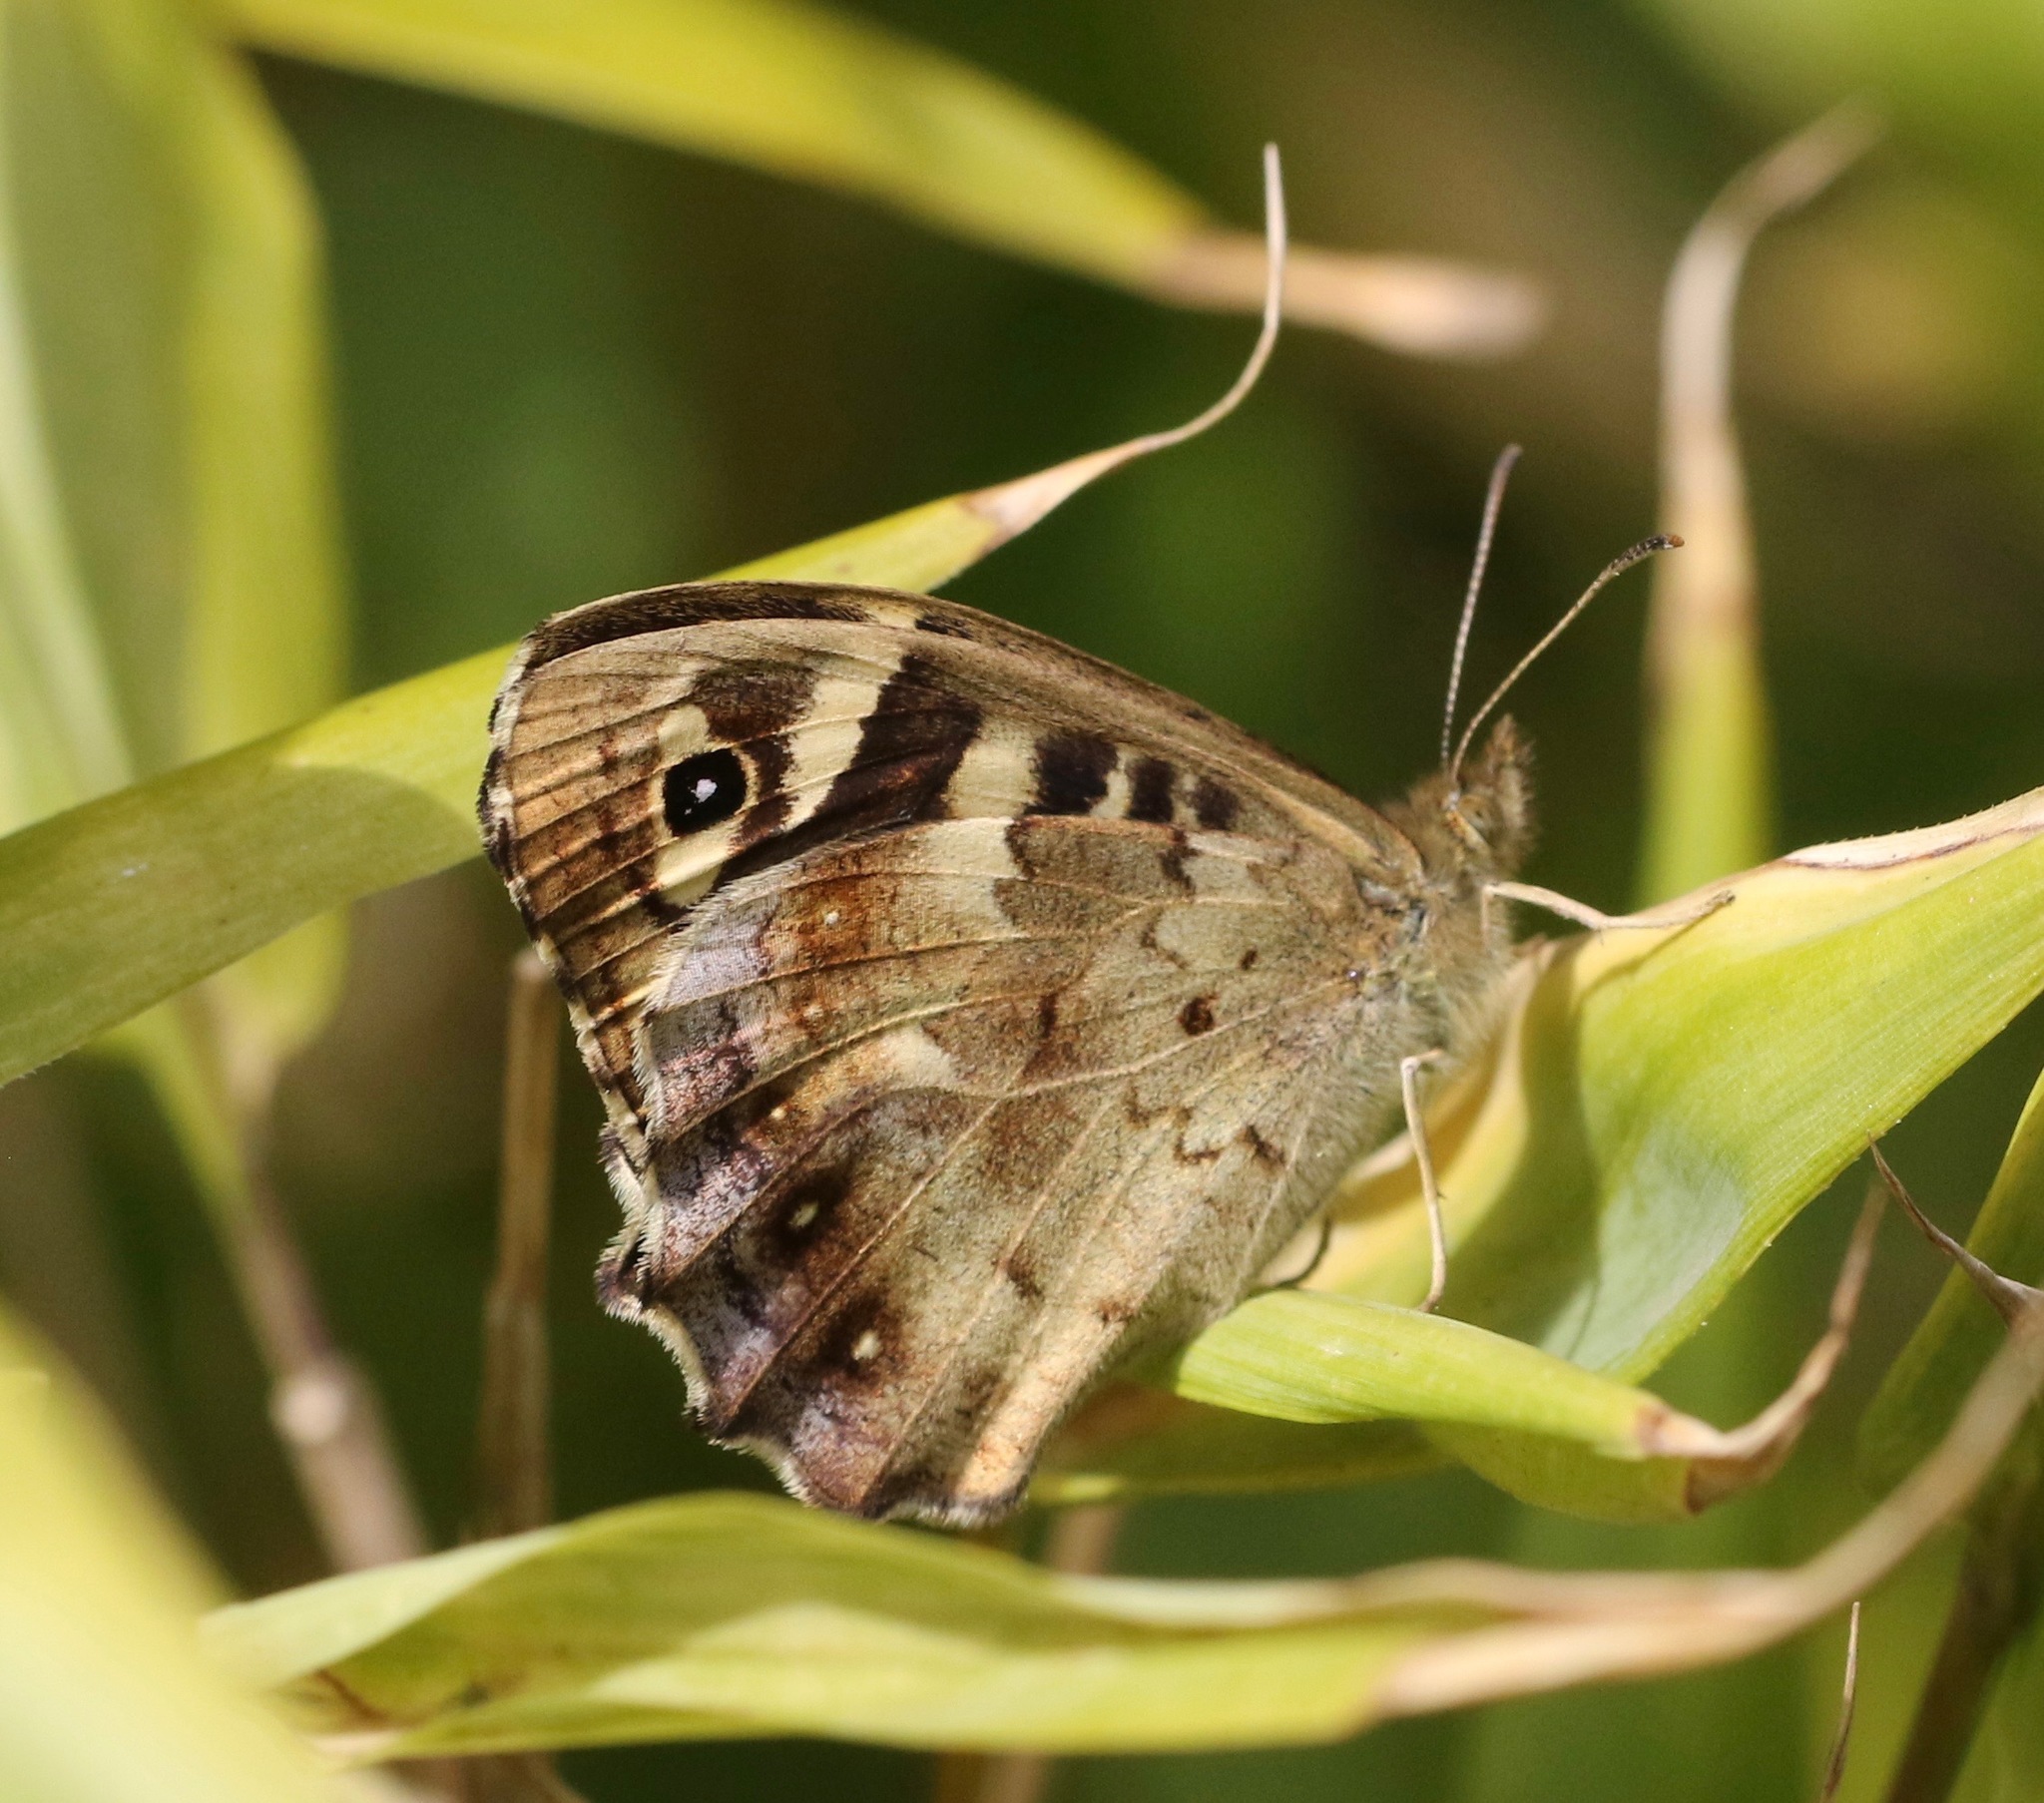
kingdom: Animalia
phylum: Arthropoda
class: Insecta
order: Lepidoptera
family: Nymphalidae
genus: Pararge
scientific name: Pararge aegeria
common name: Speckled wood
